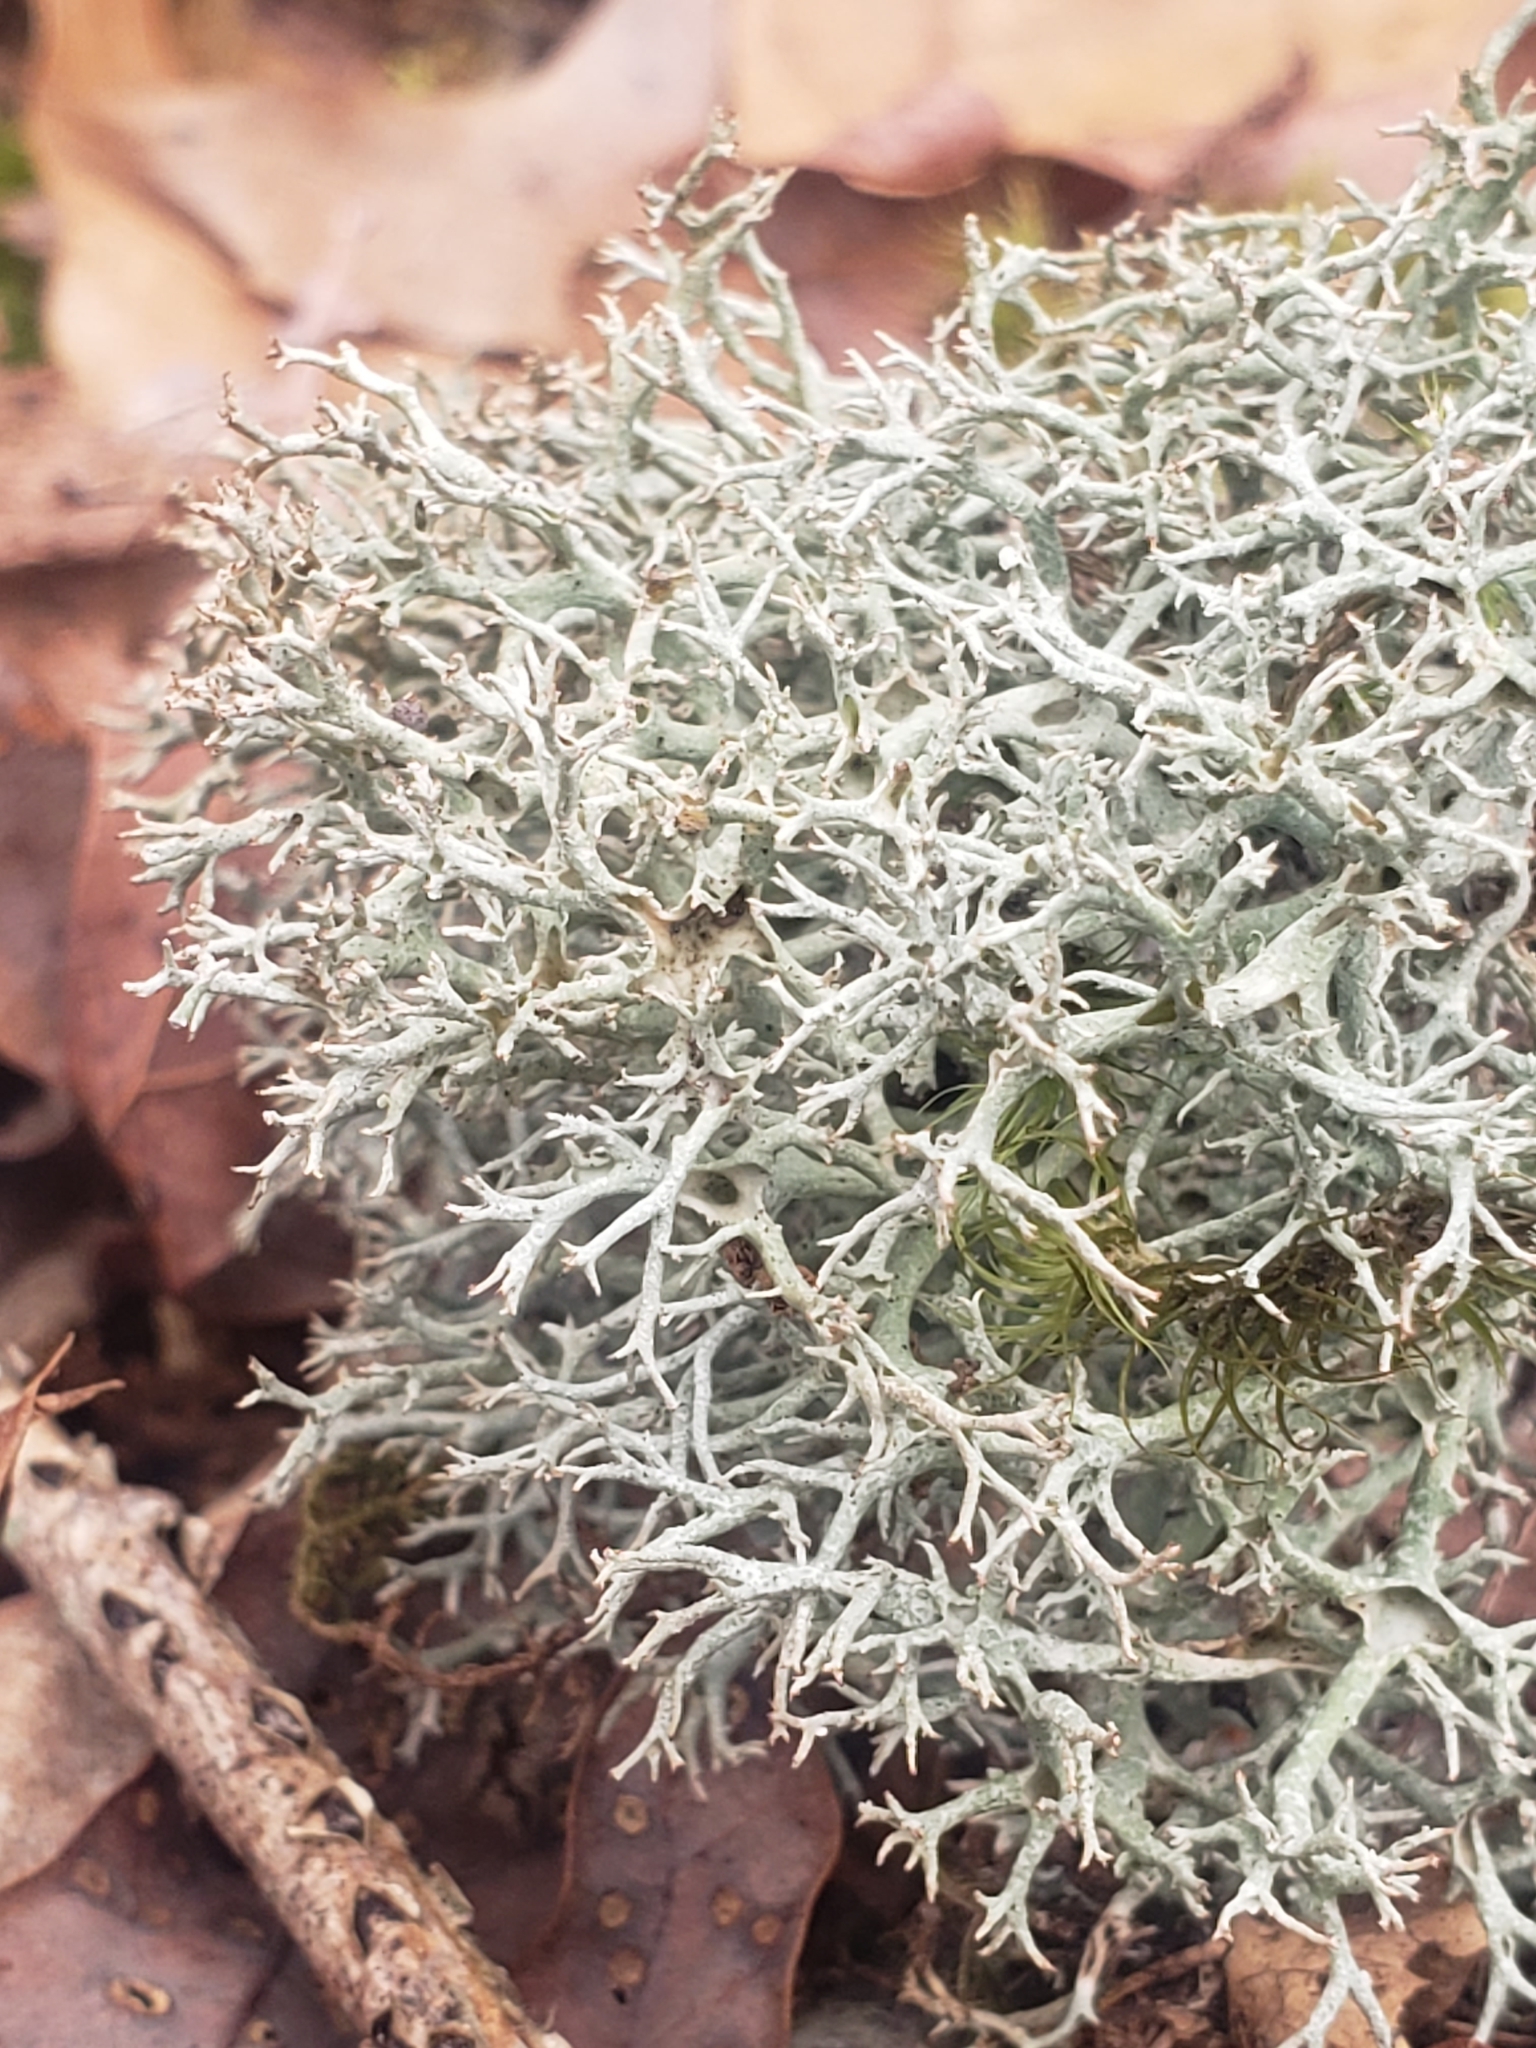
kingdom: Fungi
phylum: Ascomycota
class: Lecanoromycetes
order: Lecanorales
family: Cladoniaceae
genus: Cladonia
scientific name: Cladonia furcata
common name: Many-forked cladonia
